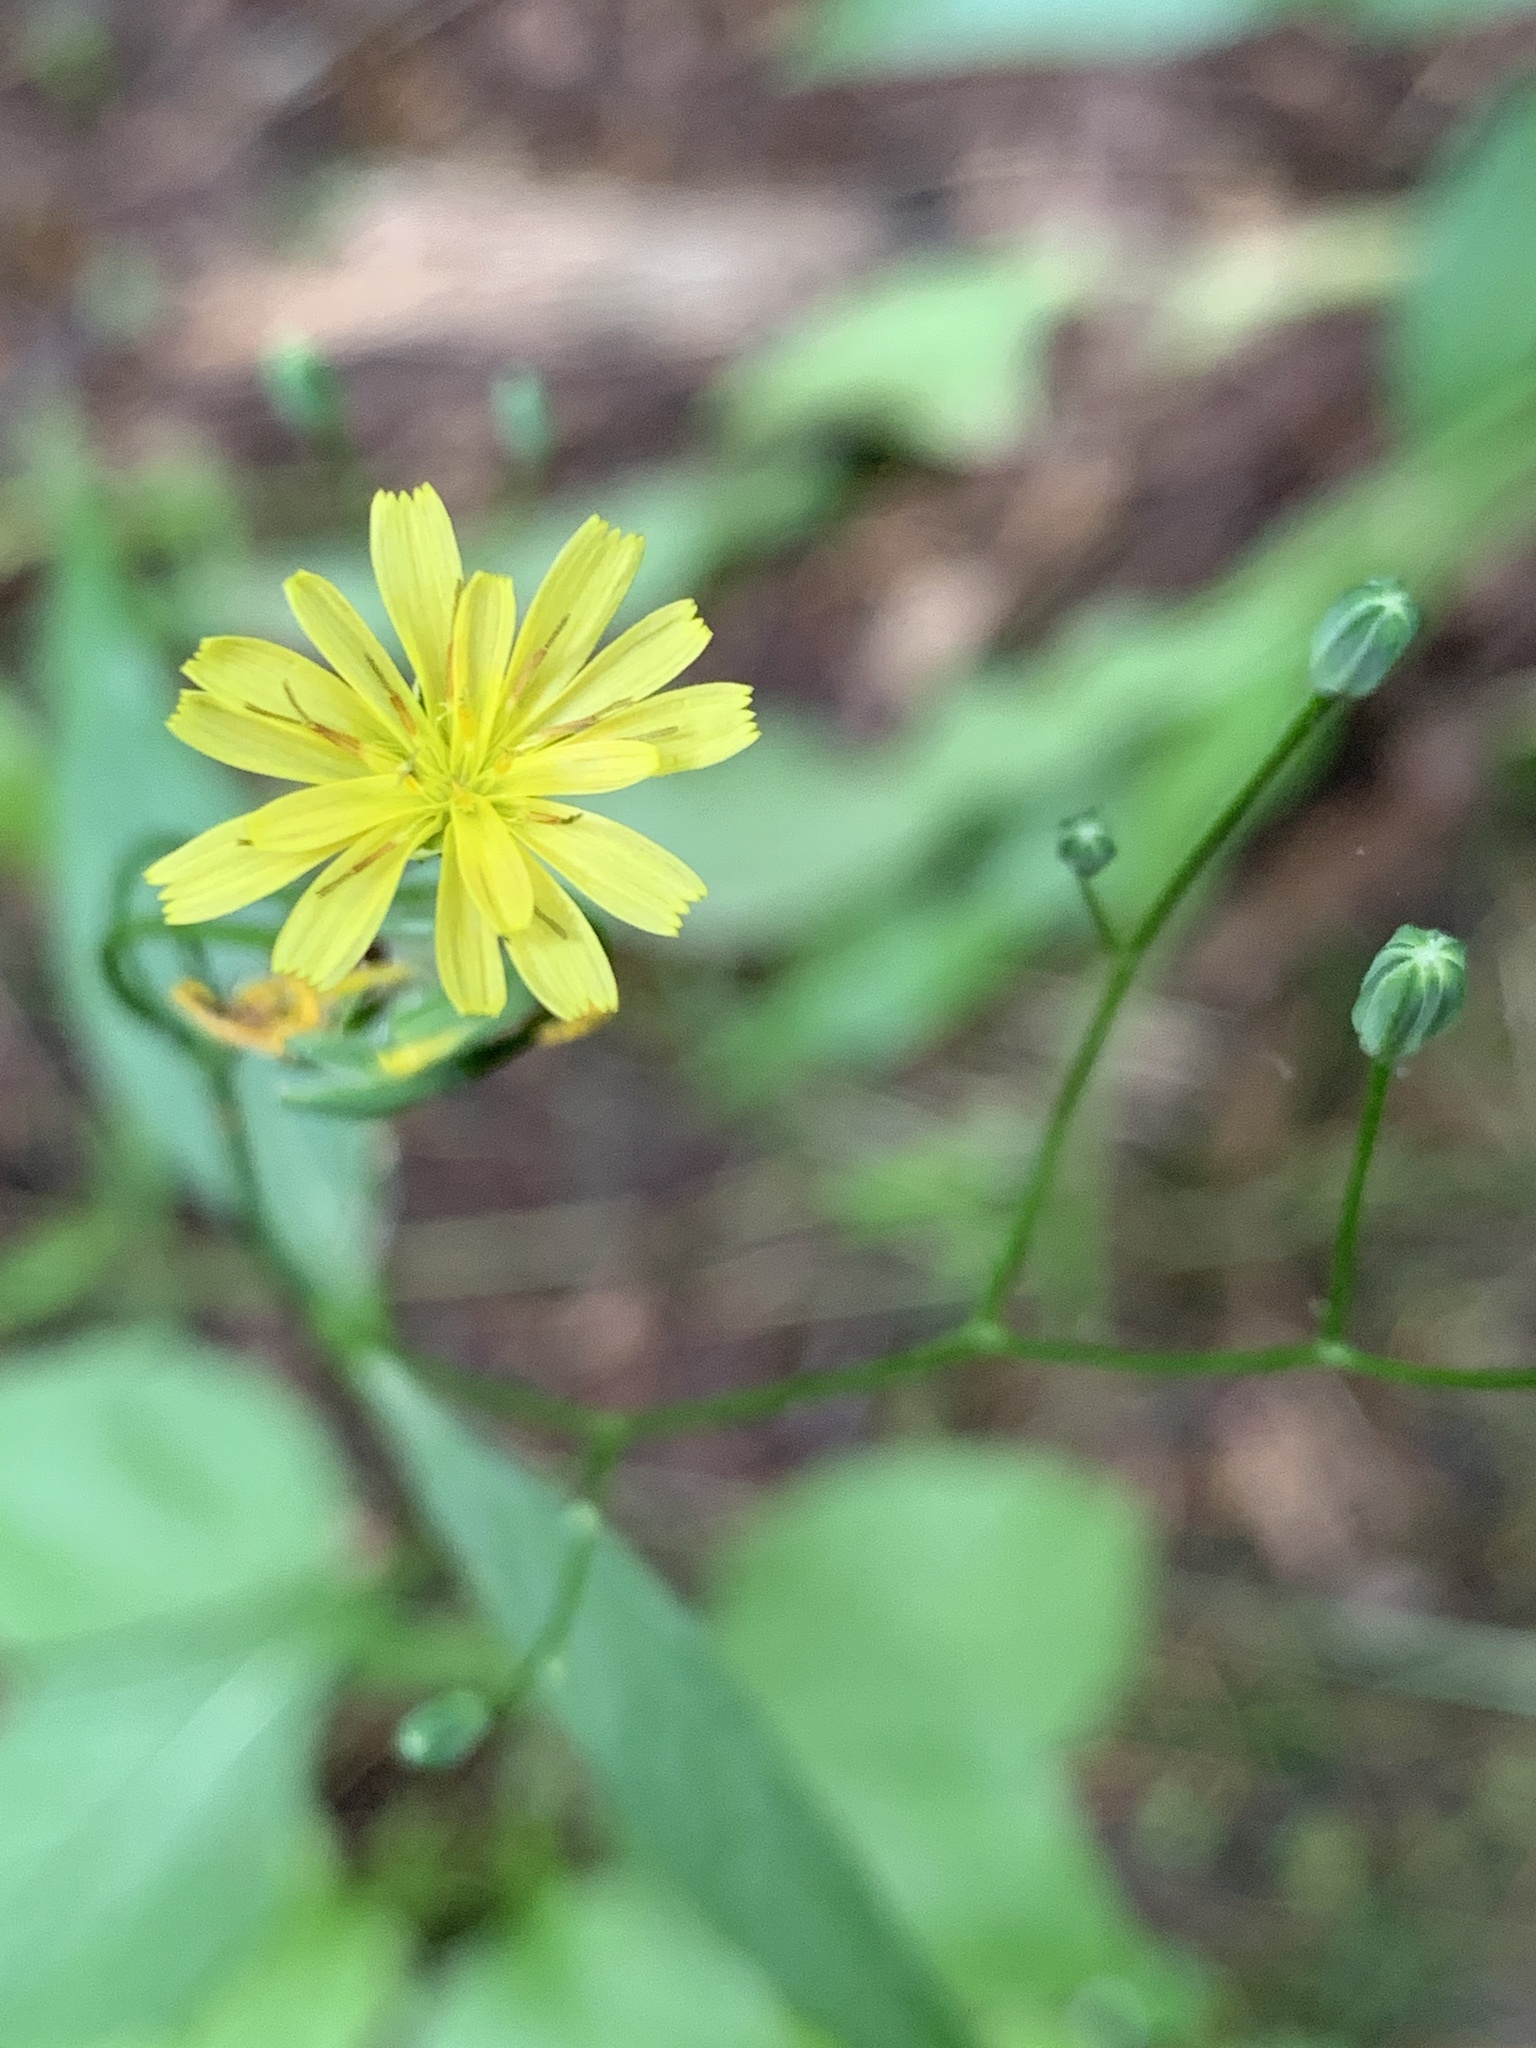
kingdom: Plantae
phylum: Tracheophyta
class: Magnoliopsida
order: Asterales
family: Asteraceae
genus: Lapsana
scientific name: Lapsana communis
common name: Nipplewort
